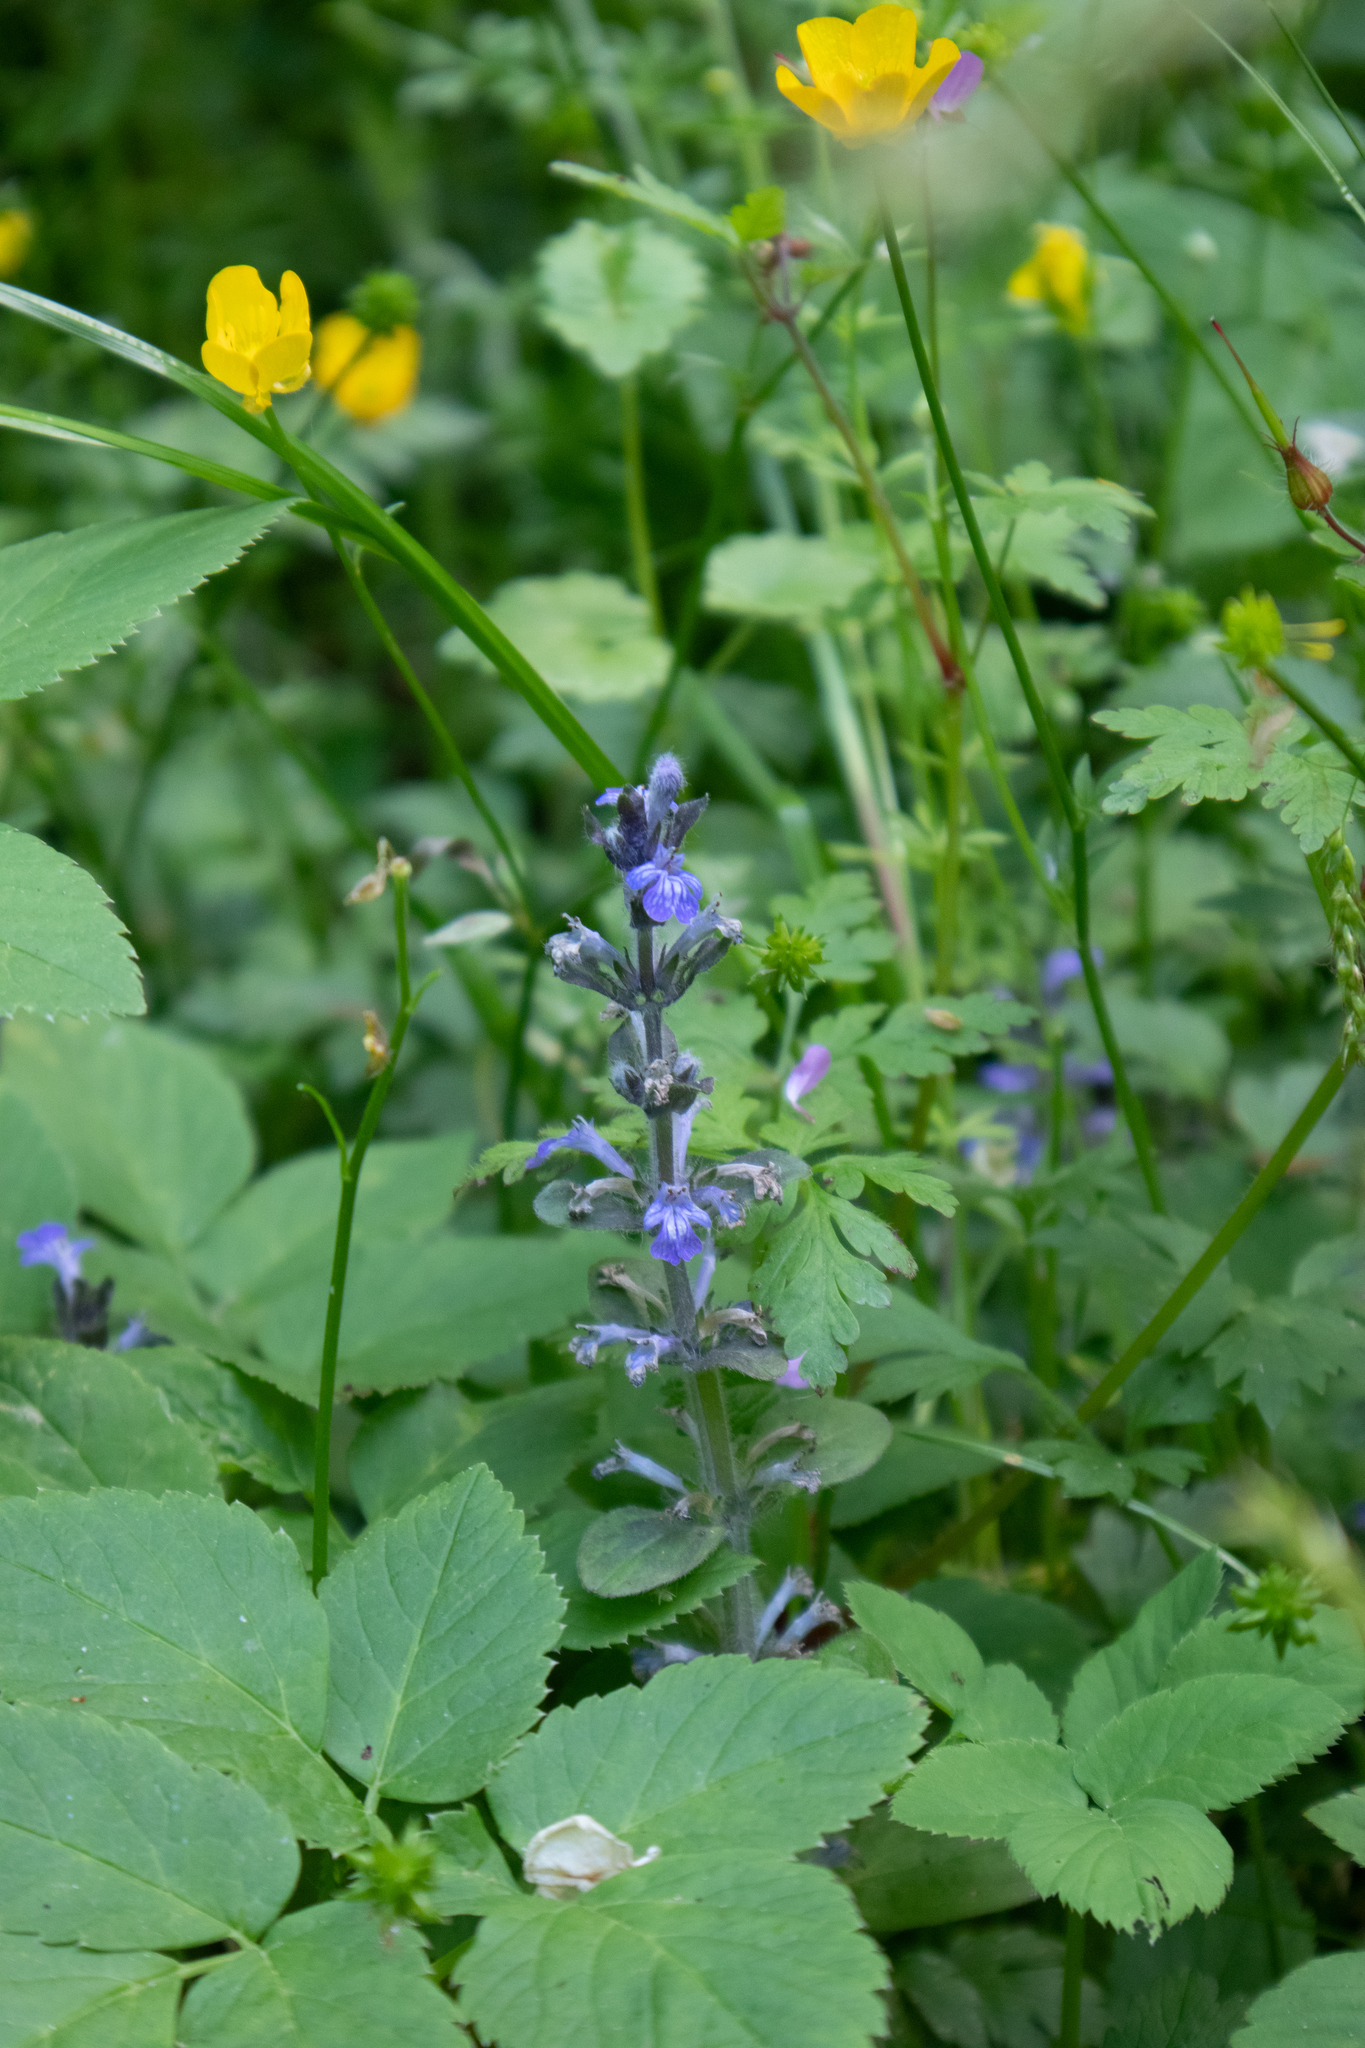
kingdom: Plantae
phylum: Tracheophyta
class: Magnoliopsida
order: Lamiales
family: Lamiaceae
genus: Ajuga
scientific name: Ajuga reptans
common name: Bugle
